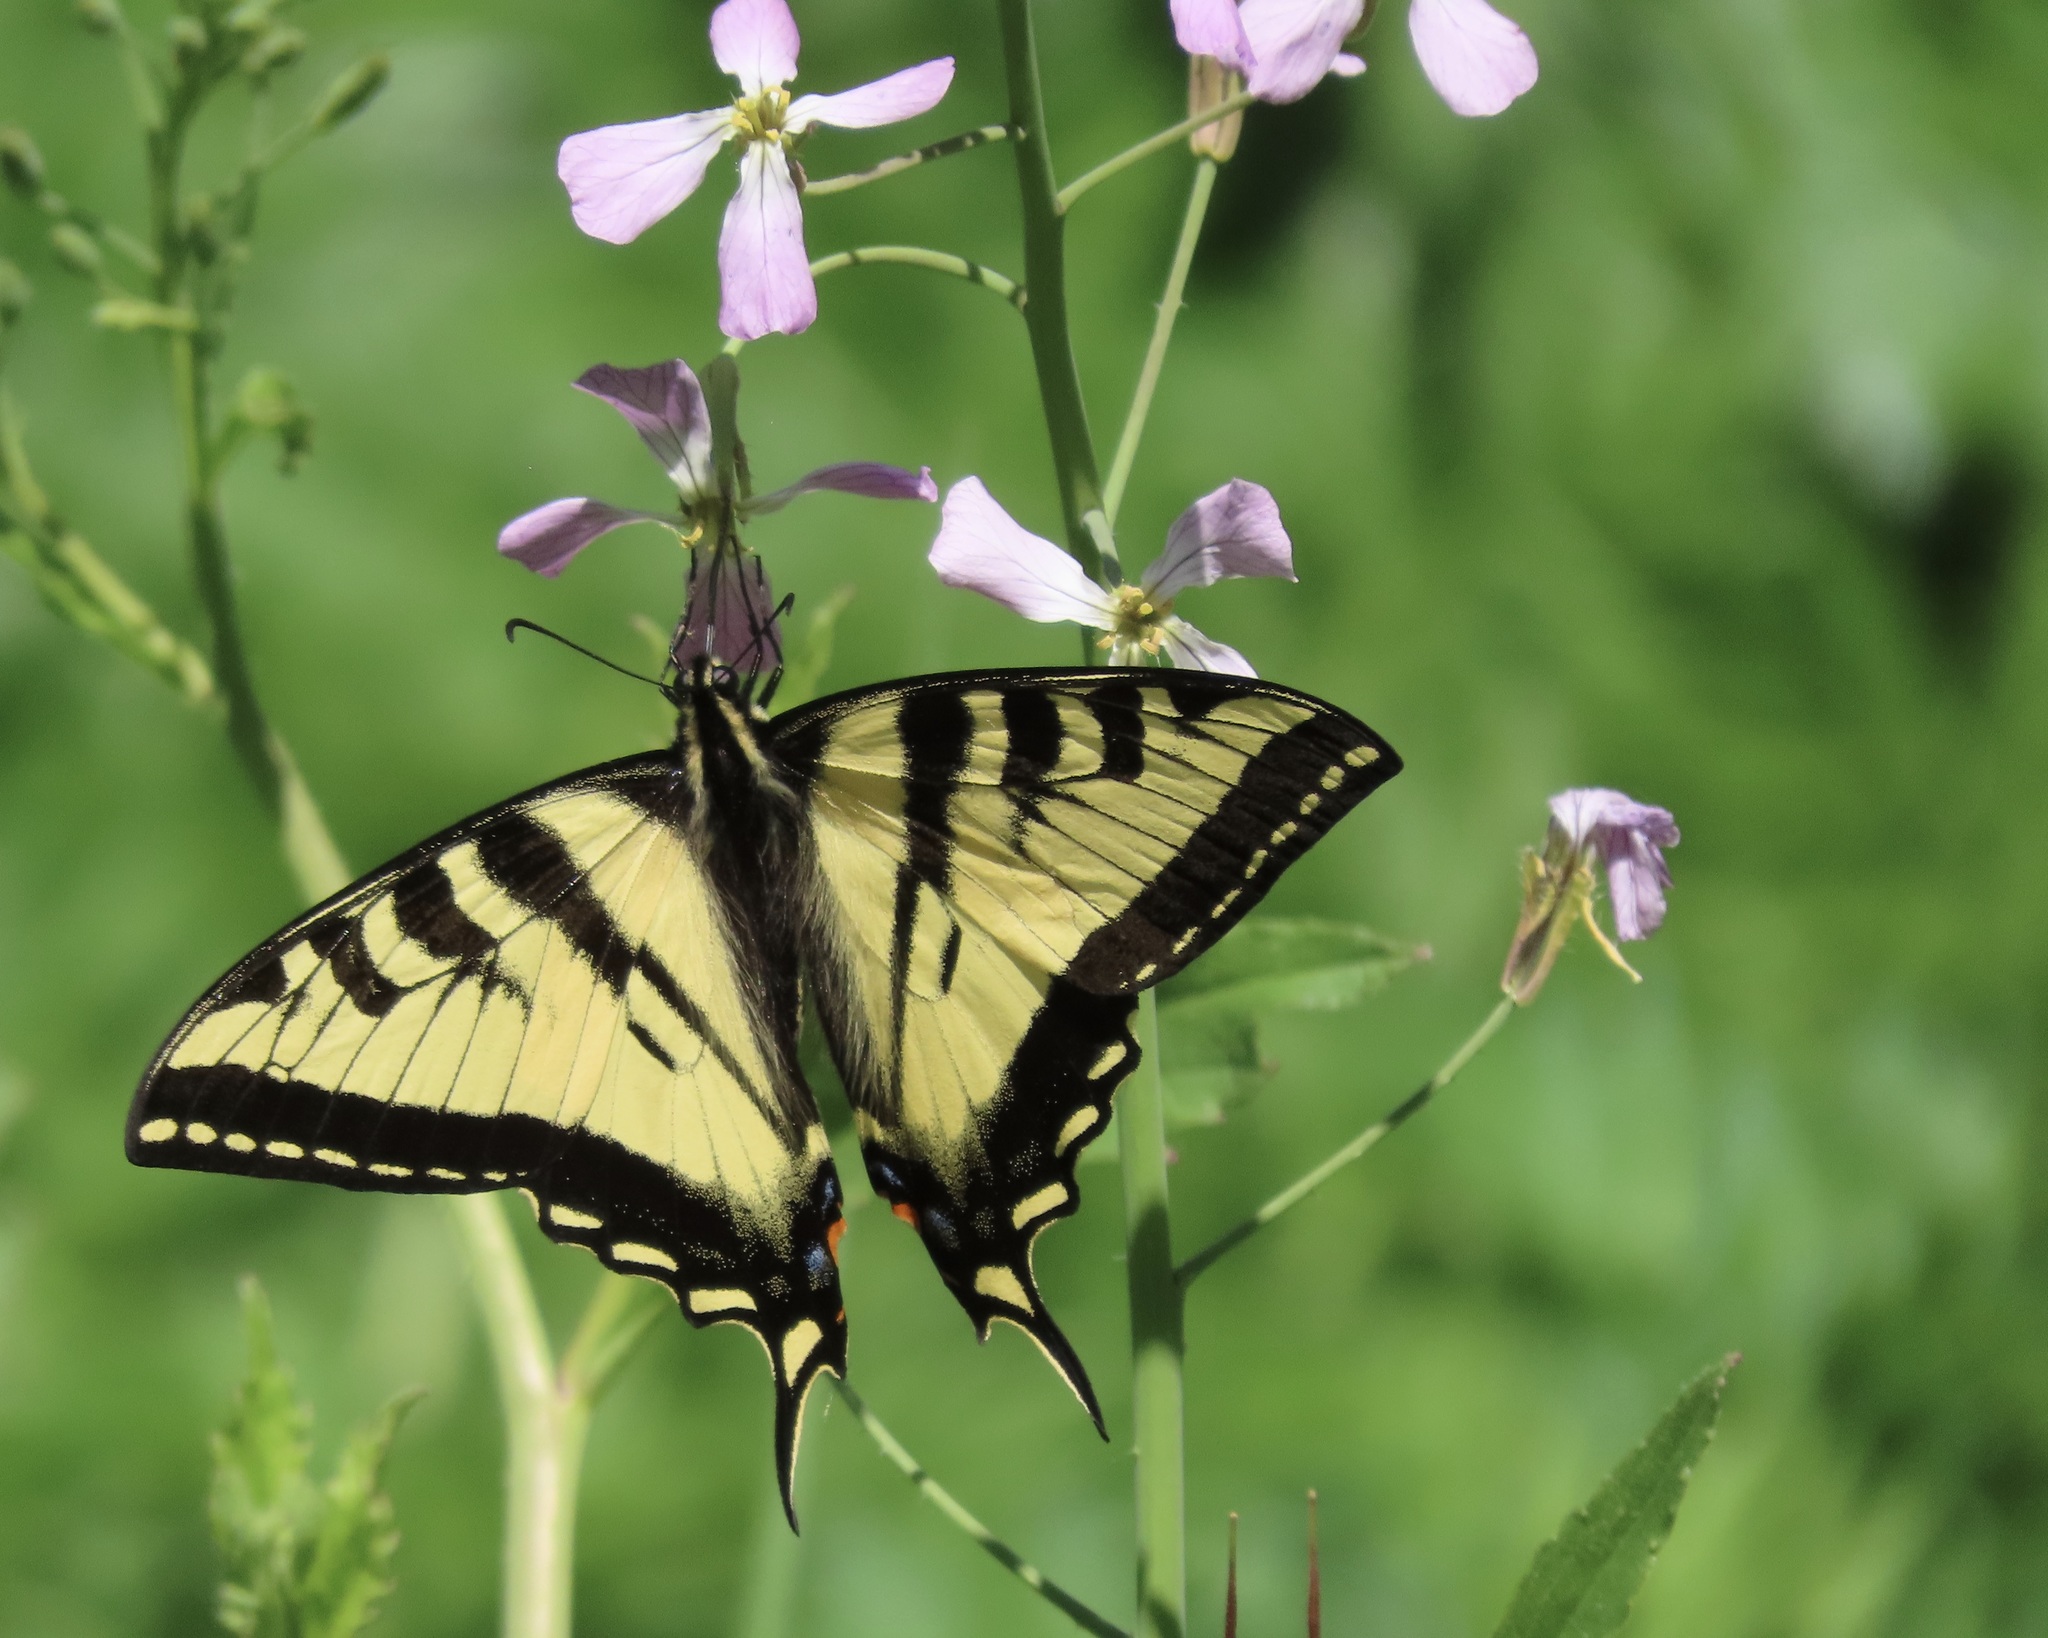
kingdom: Animalia
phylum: Arthropoda
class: Insecta
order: Lepidoptera
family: Papilionidae
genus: Papilio
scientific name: Papilio rutulus
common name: Western tiger swallowtail
